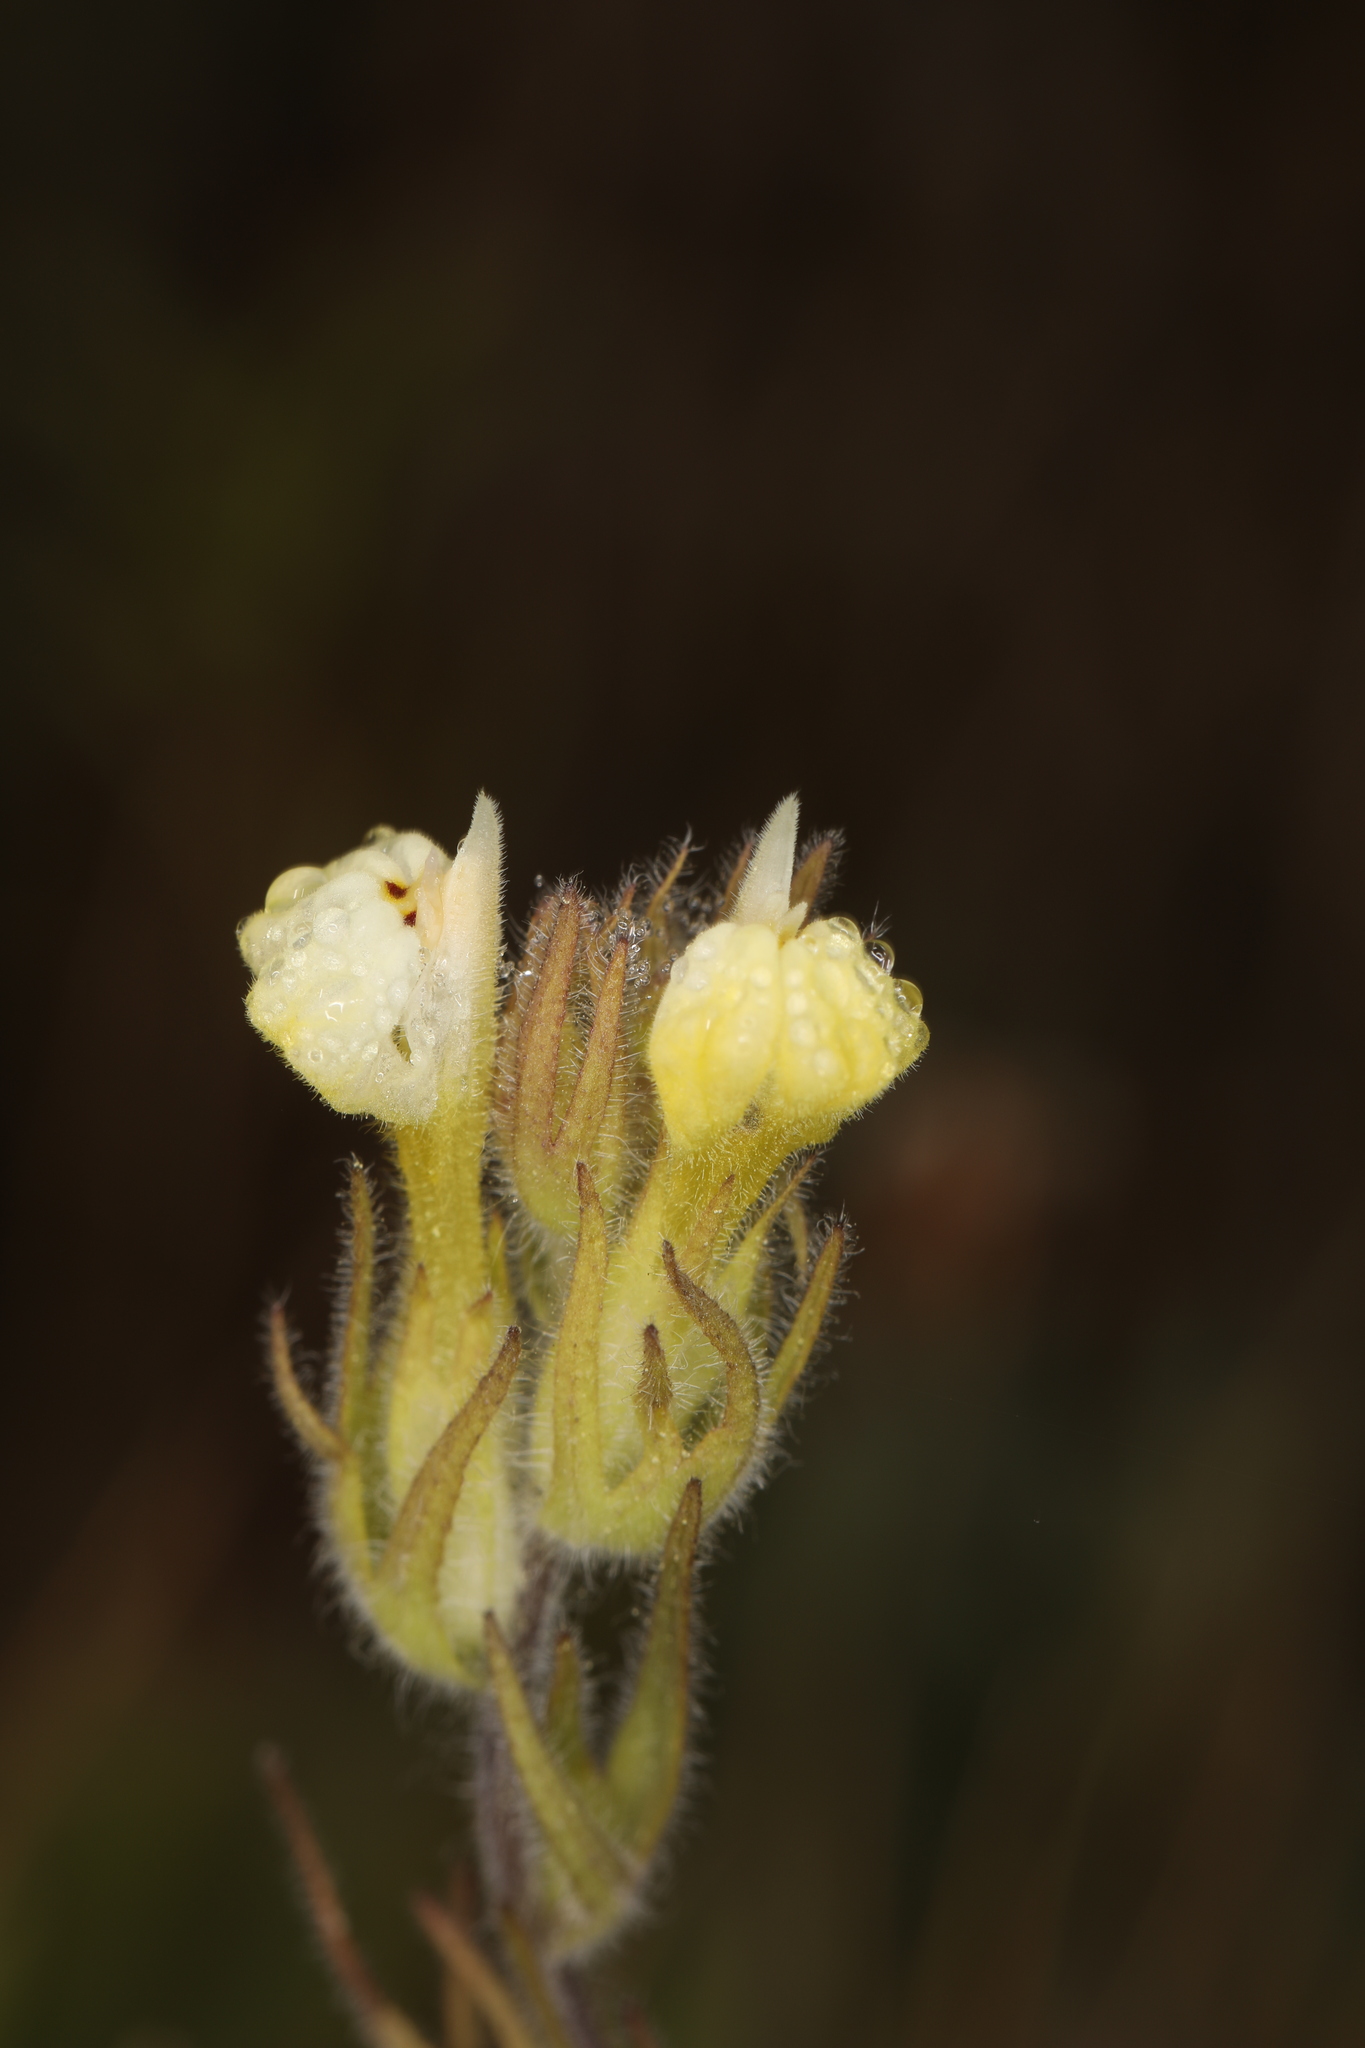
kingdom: Plantae
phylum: Tracheophyta
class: Magnoliopsida
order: Lamiales
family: Orobanchaceae
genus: Castilleja
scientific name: Castilleja tenuis
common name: Hairy indian paintbrush
